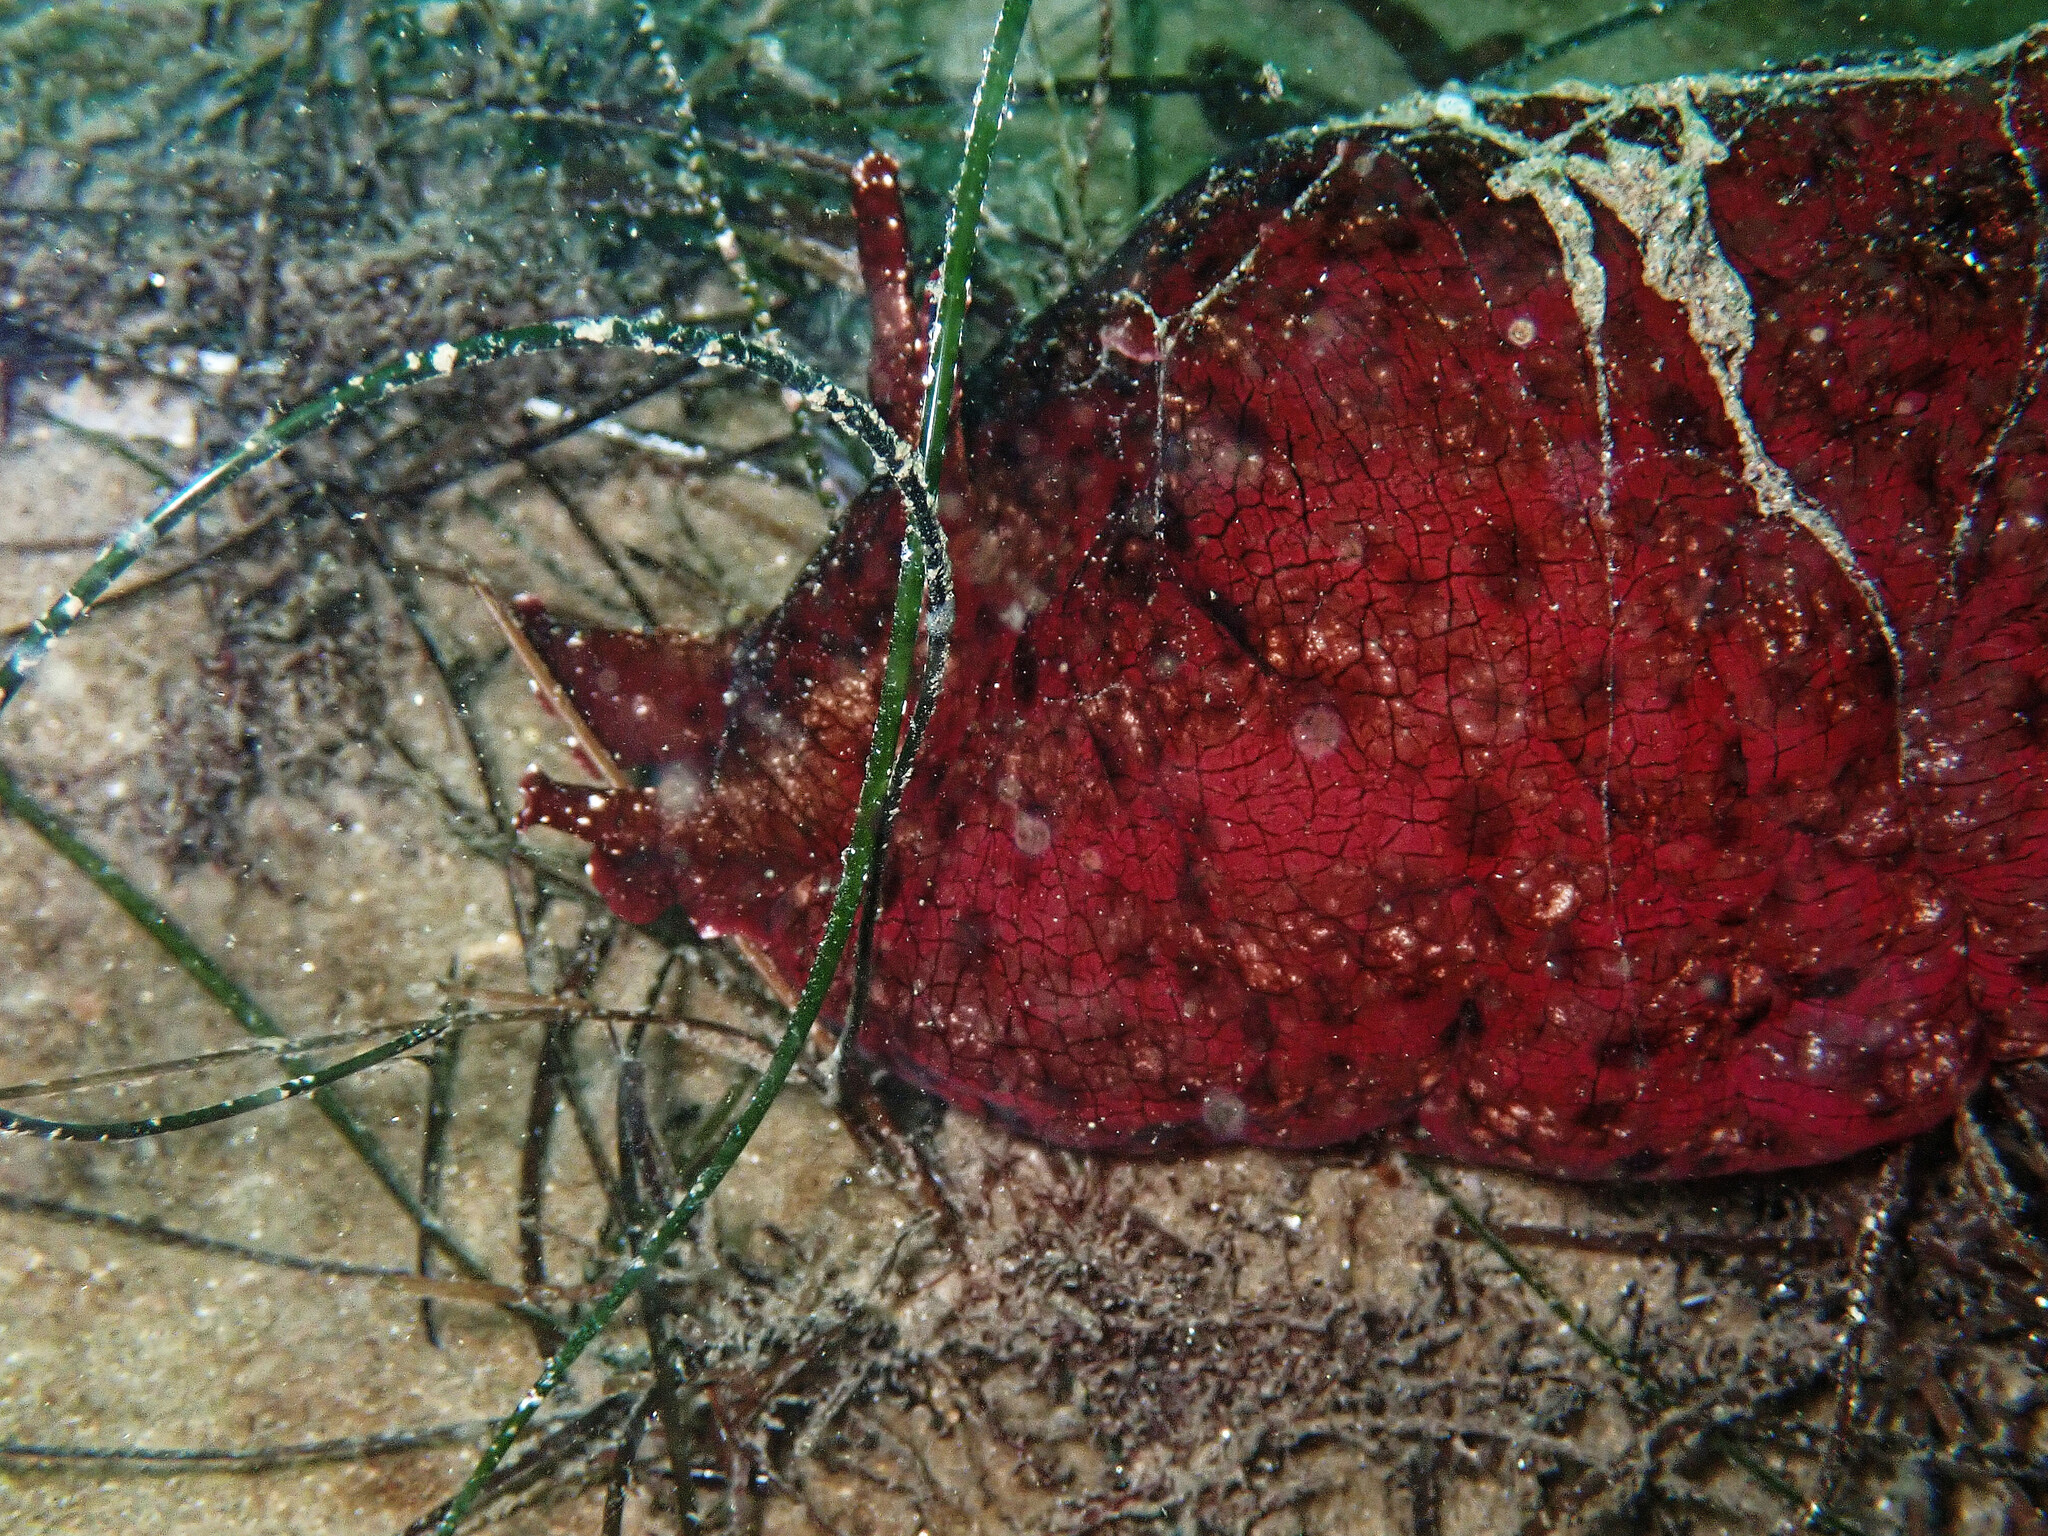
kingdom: Animalia
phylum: Mollusca
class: Gastropoda
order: Aplysiida
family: Aplysiidae
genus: Aplysia
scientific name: Aplysia californica
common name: California seahare
